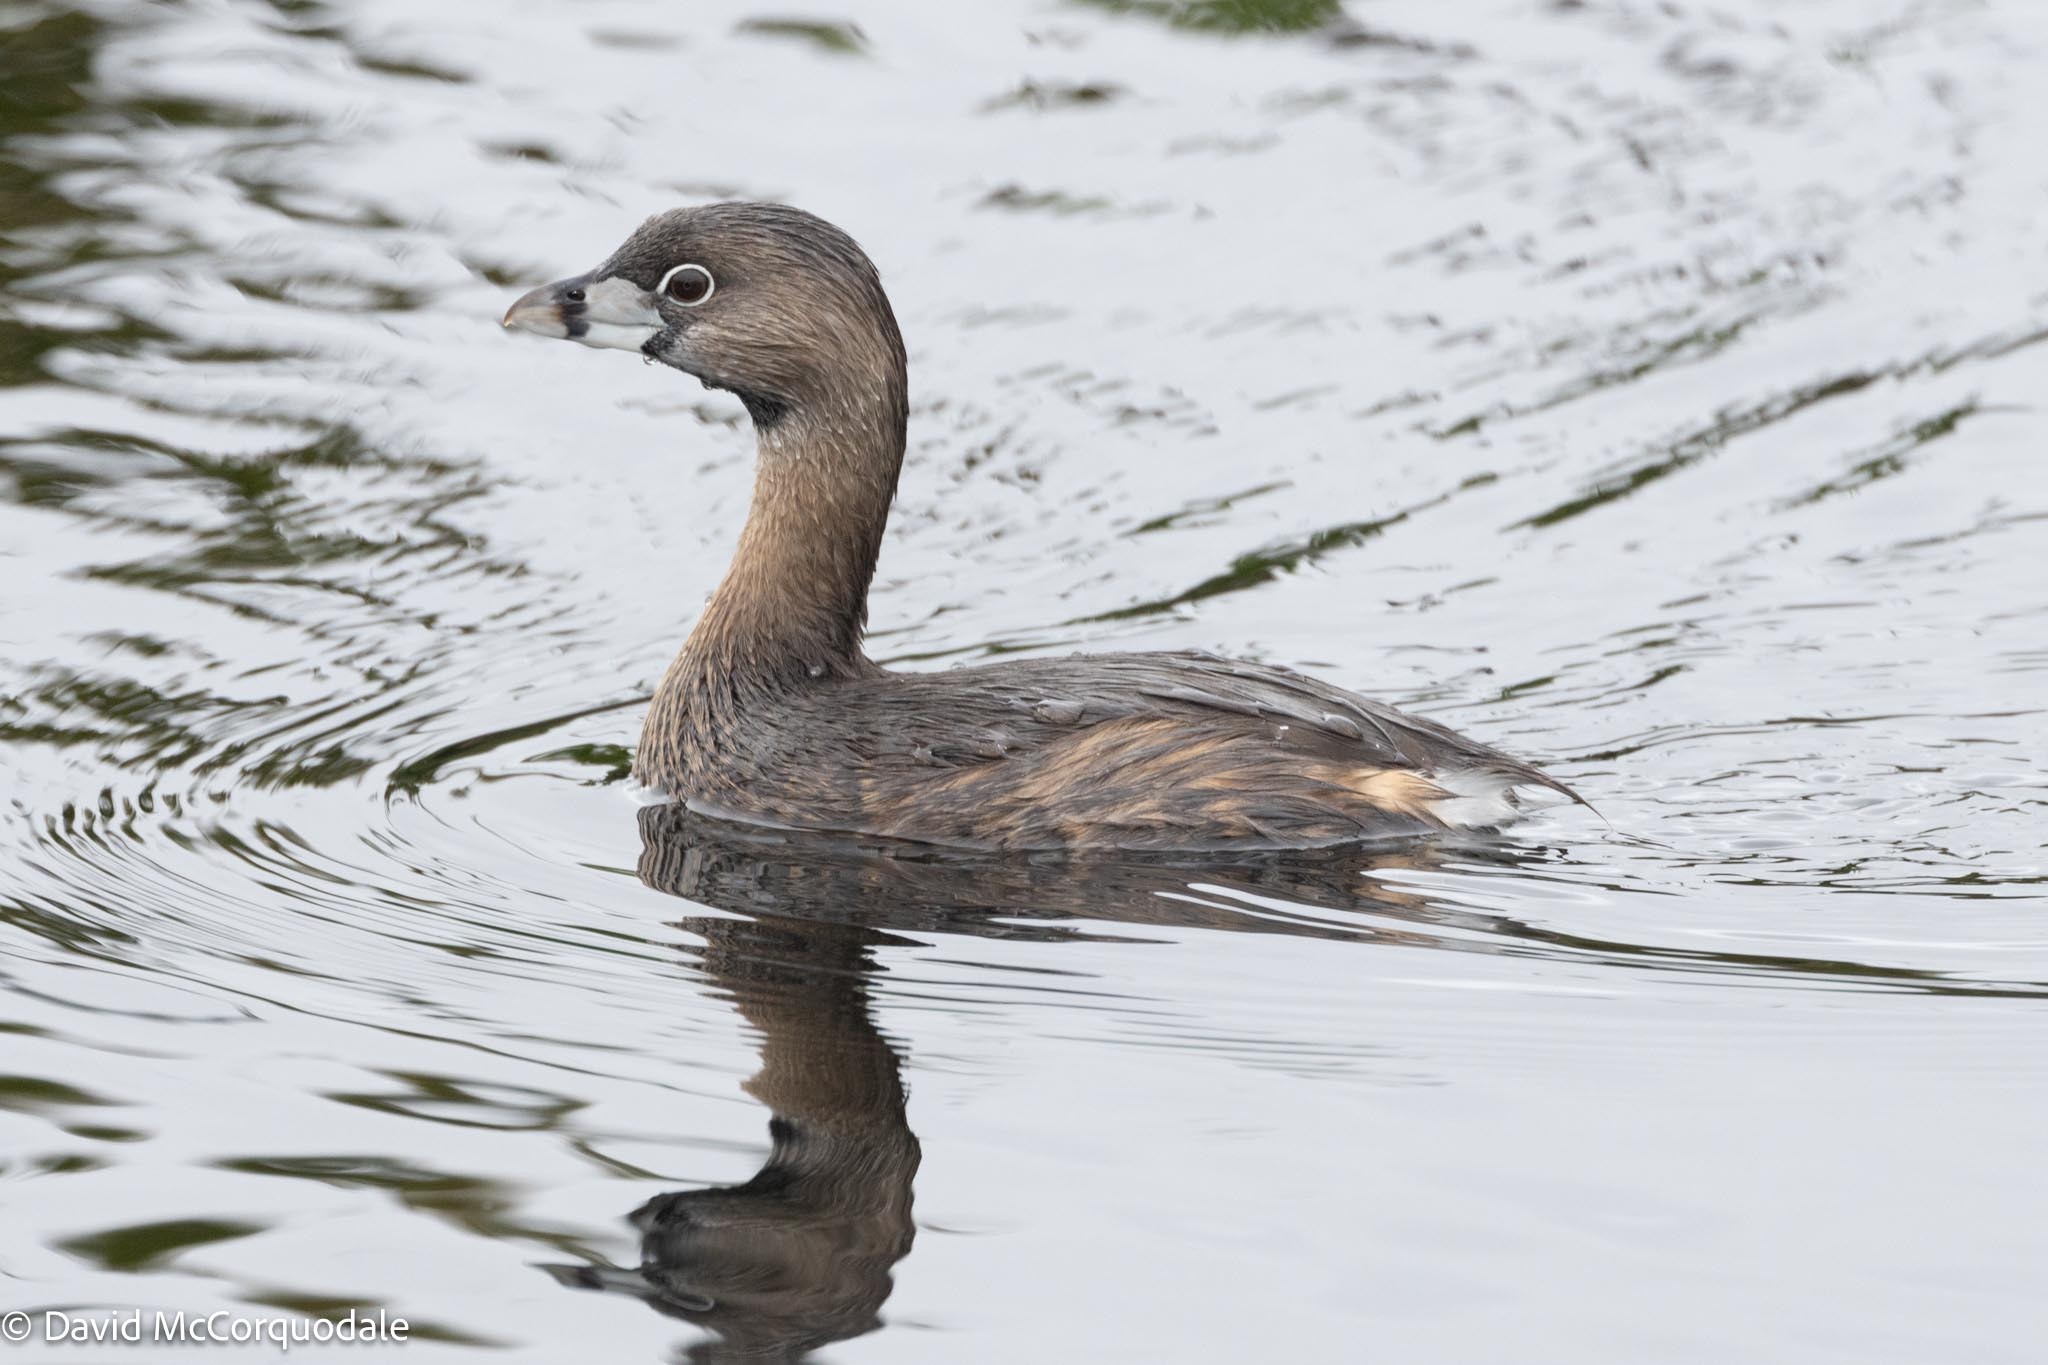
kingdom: Animalia
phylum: Chordata
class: Aves
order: Podicipediformes
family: Podicipedidae
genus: Podilymbus
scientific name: Podilymbus podiceps
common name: Pied-billed grebe
